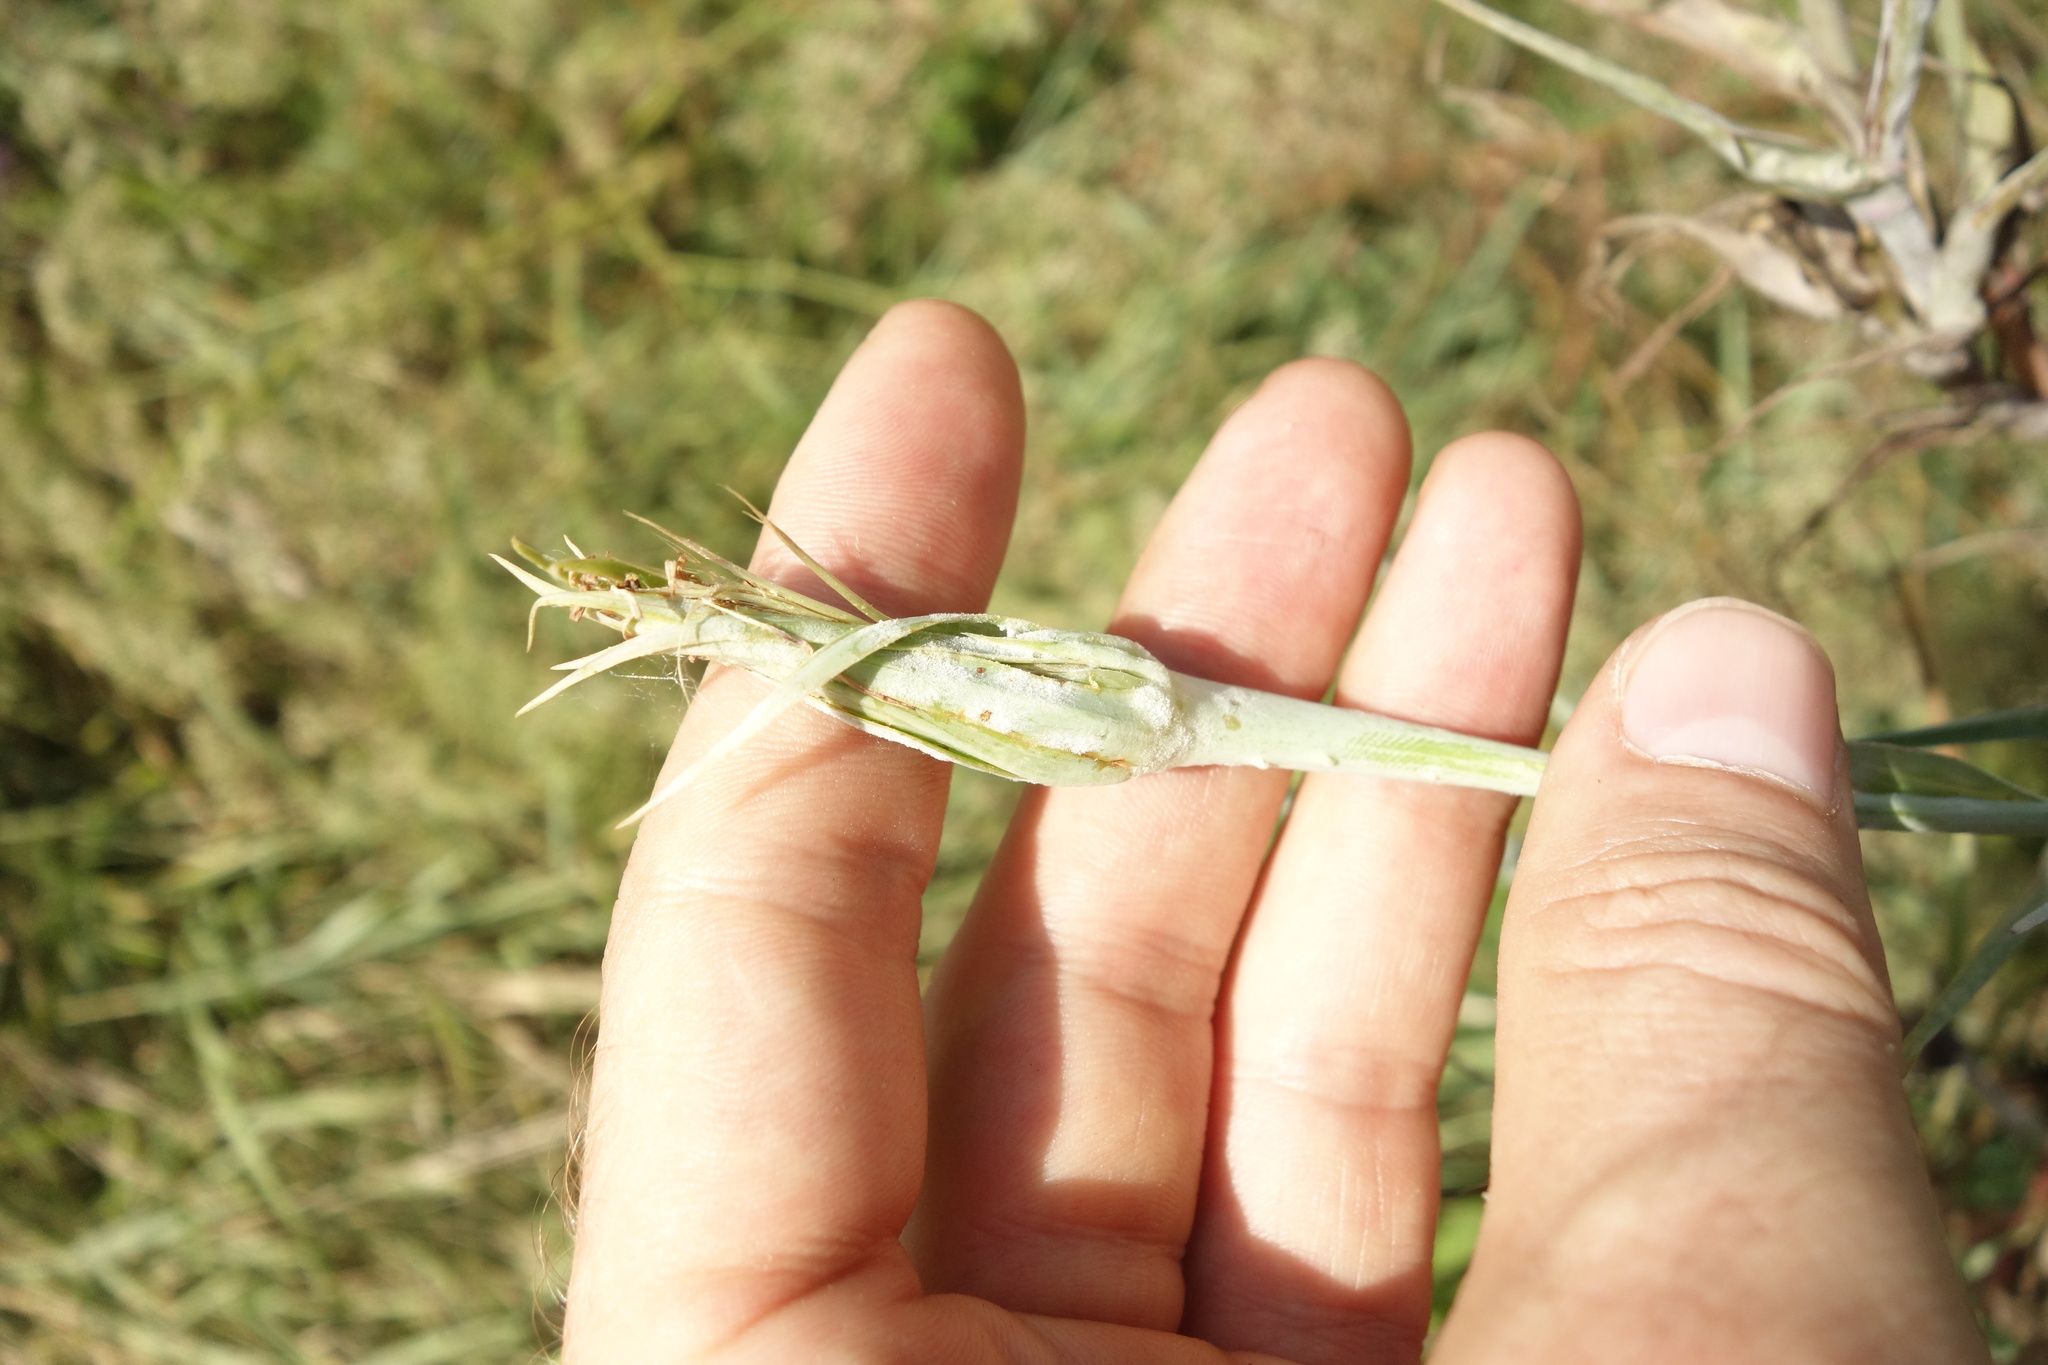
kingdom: Plantae
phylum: Tracheophyta
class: Magnoliopsida
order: Asterales
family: Asteraceae
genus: Tragopogon
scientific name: Tragopogon dubius
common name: Yellow salsify
